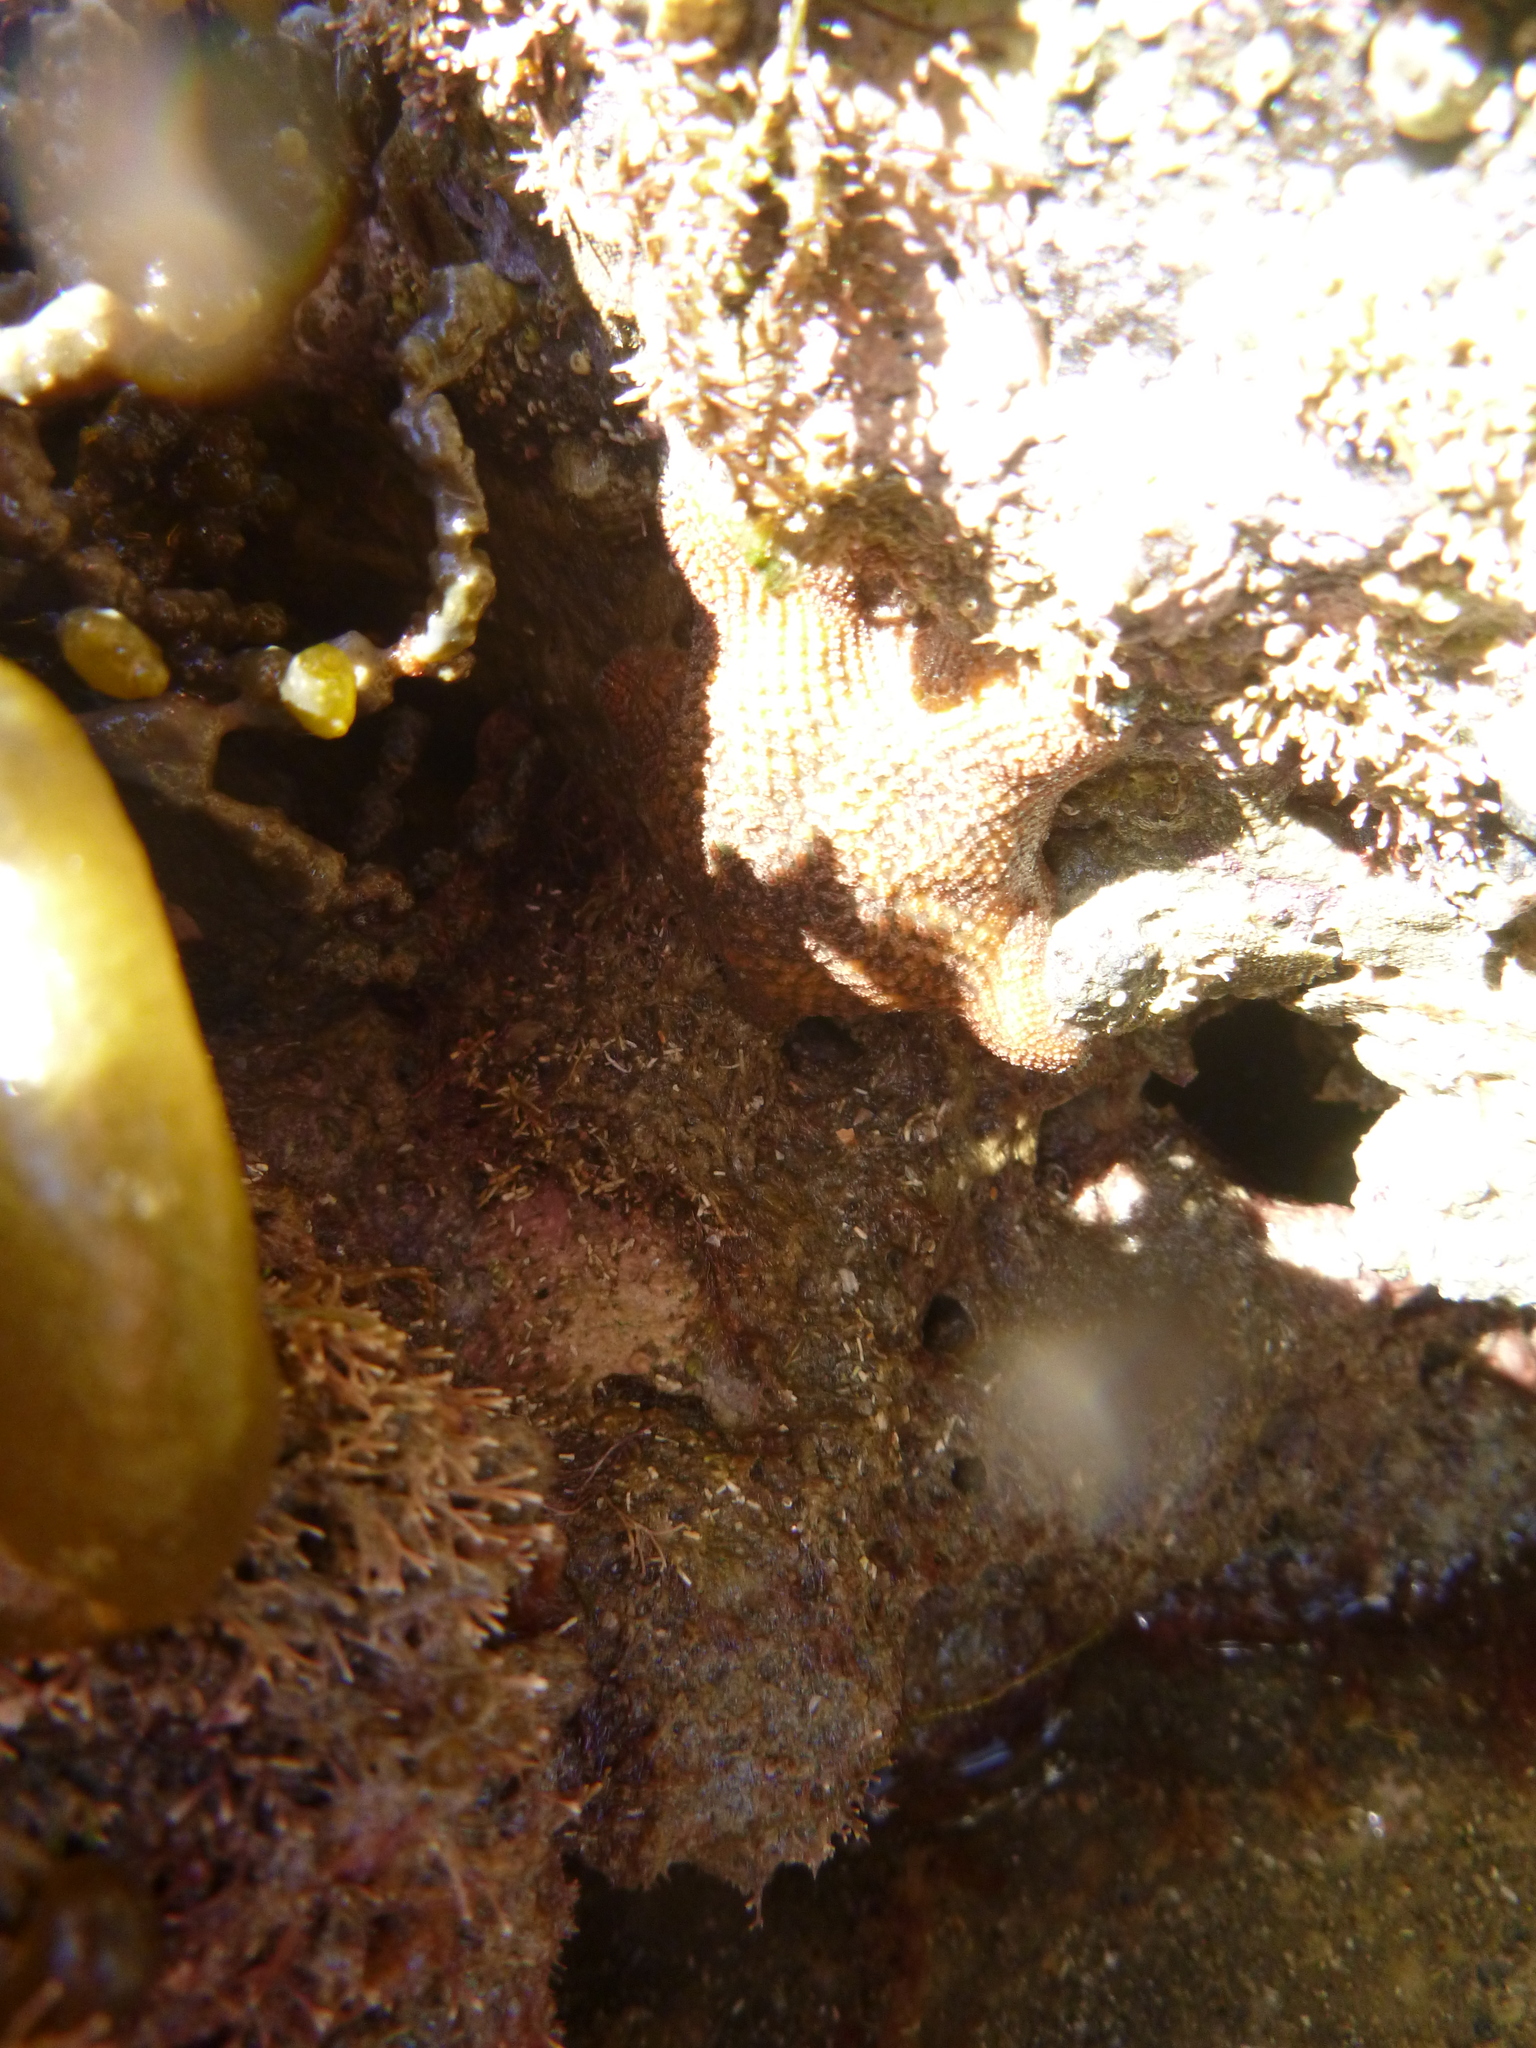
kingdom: Animalia
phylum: Echinodermata
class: Asteroidea
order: Valvatida
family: Asterinidae
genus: Patiriella
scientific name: Patiriella regularis
